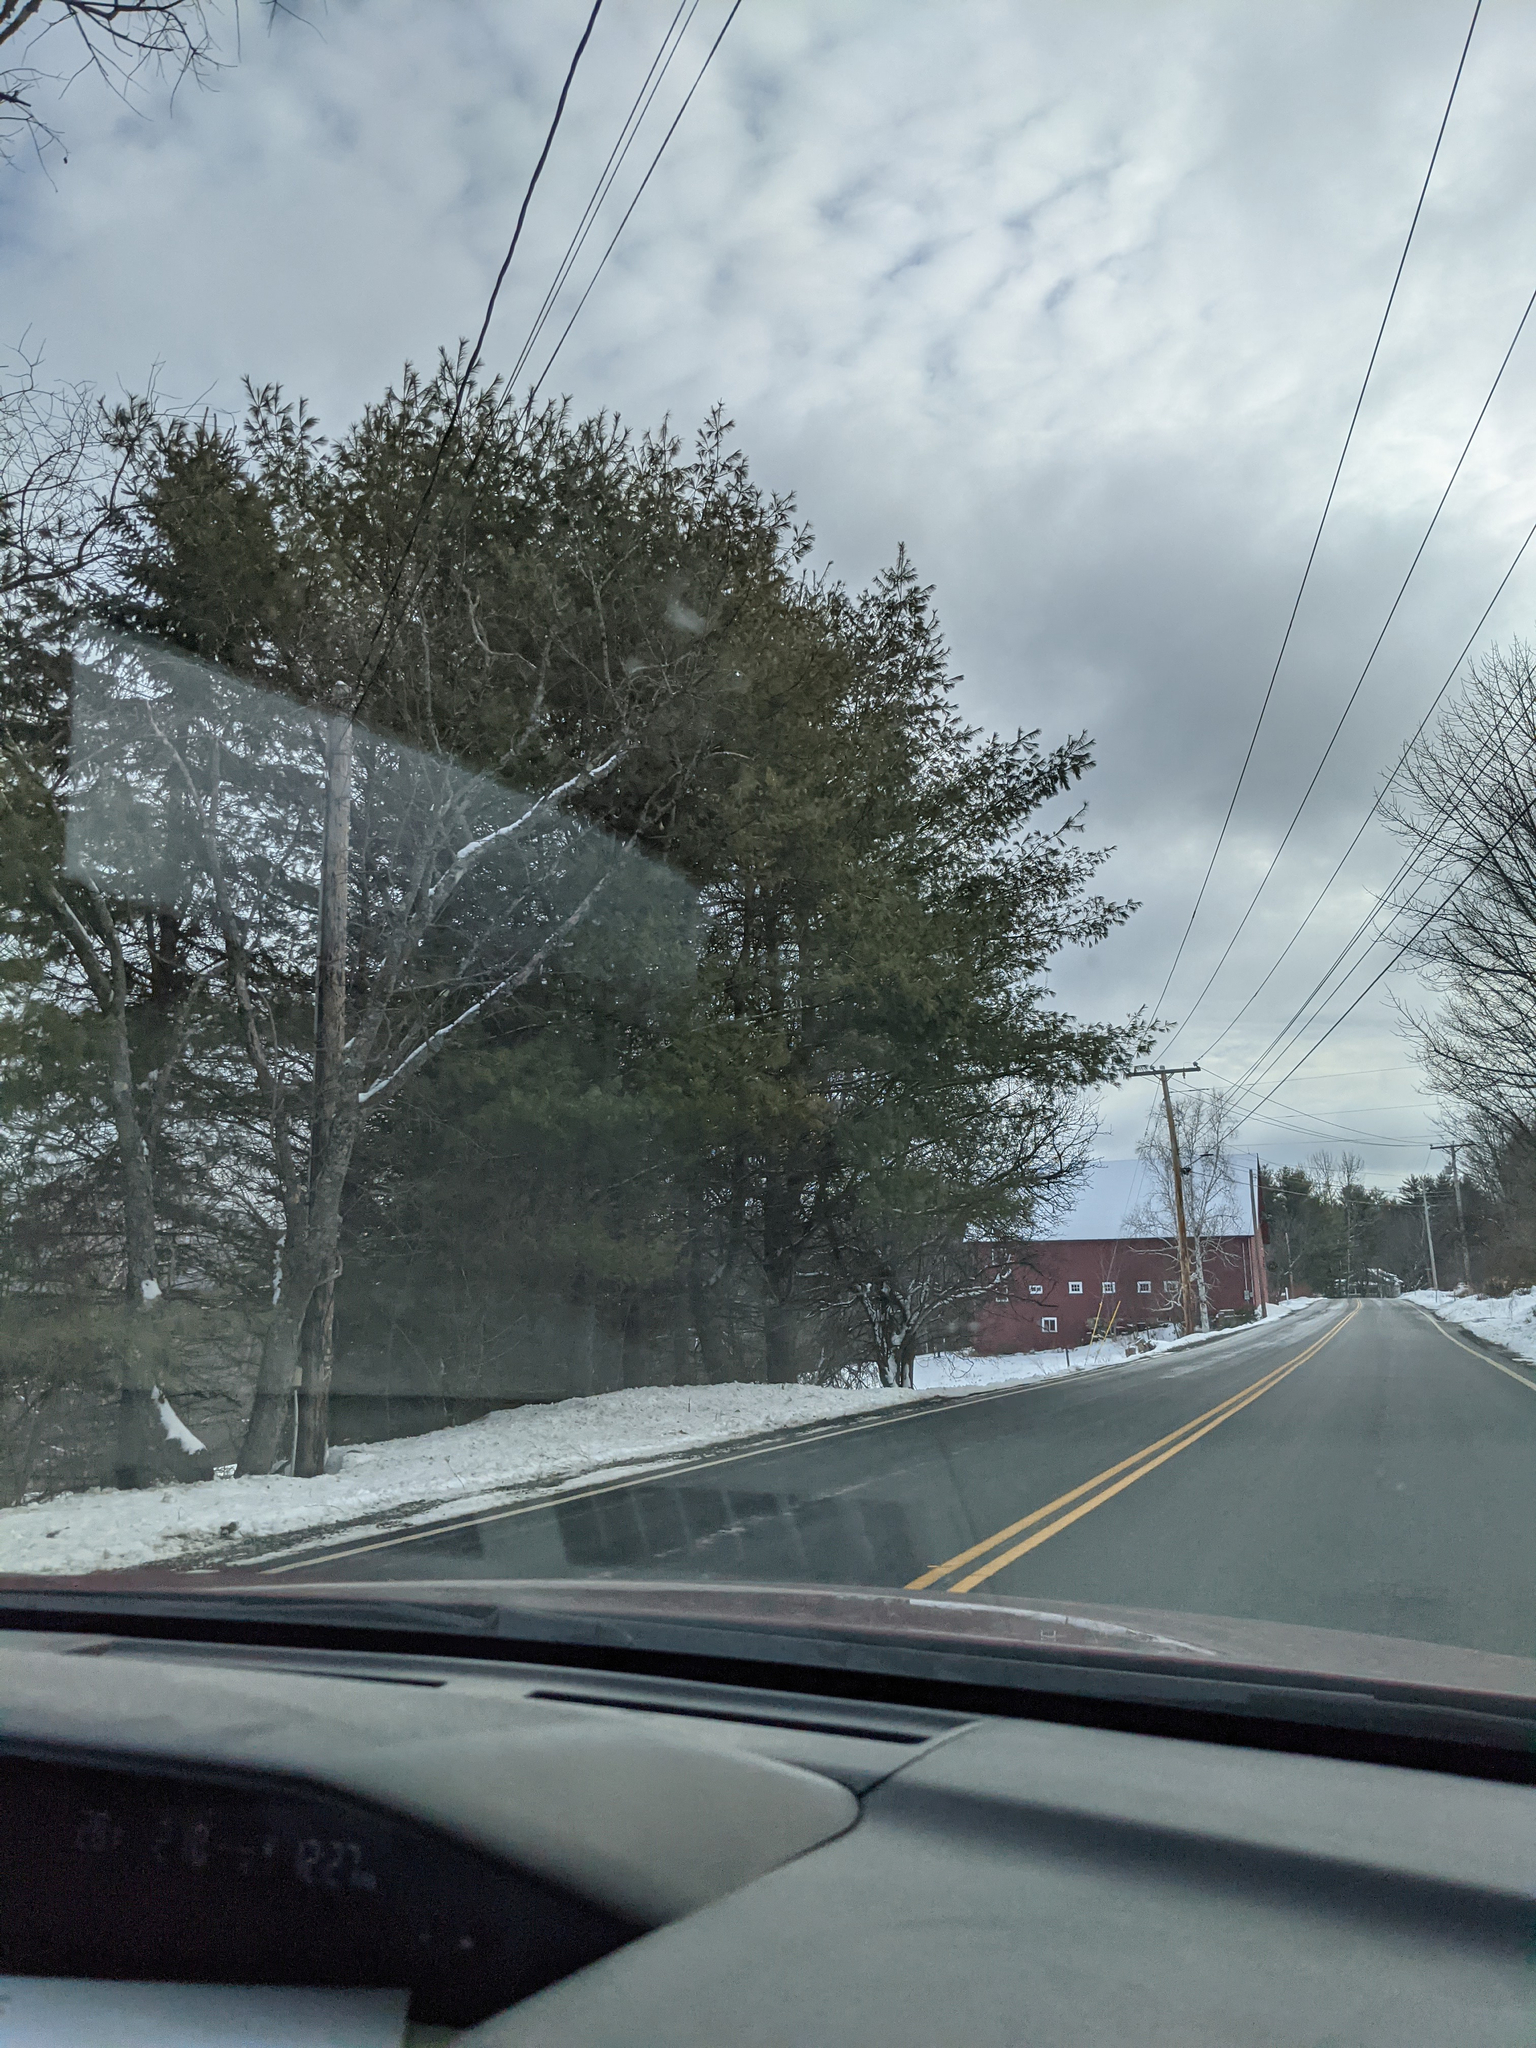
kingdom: Plantae
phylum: Tracheophyta
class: Pinopsida
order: Pinales
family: Pinaceae
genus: Pinus
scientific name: Pinus strobus
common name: Weymouth pine
